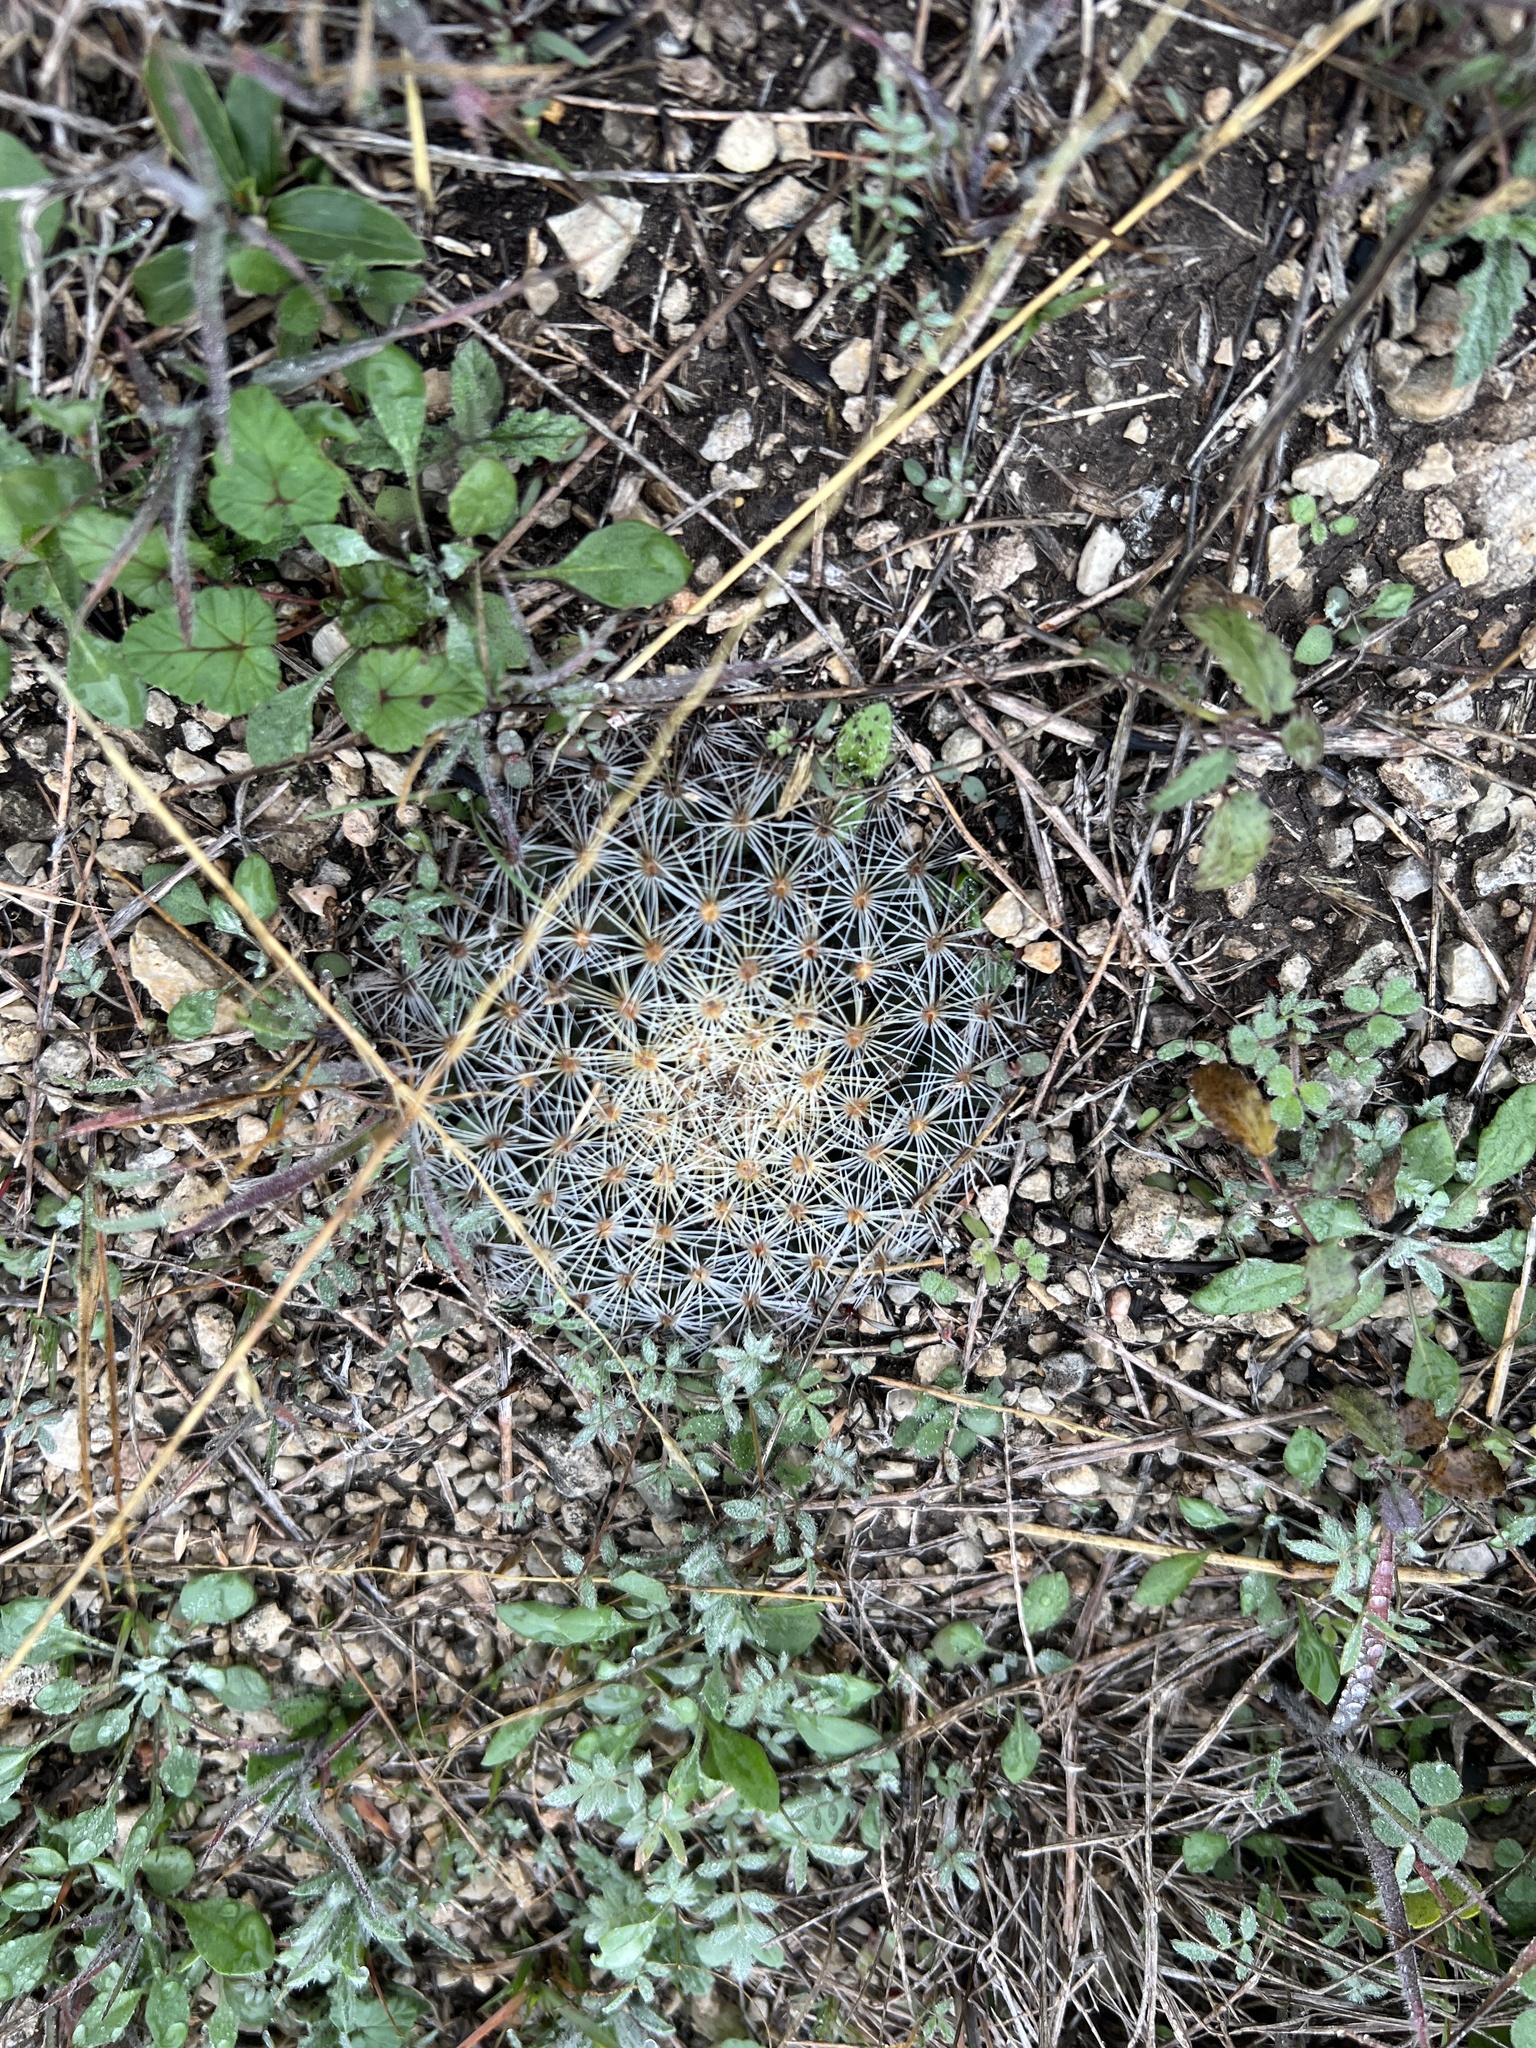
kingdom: Plantae
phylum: Tracheophyta
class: Magnoliopsida
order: Caryophyllales
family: Cactaceae
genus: Mammillaria
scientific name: Mammillaria heyderi
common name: Little nipple cactus
